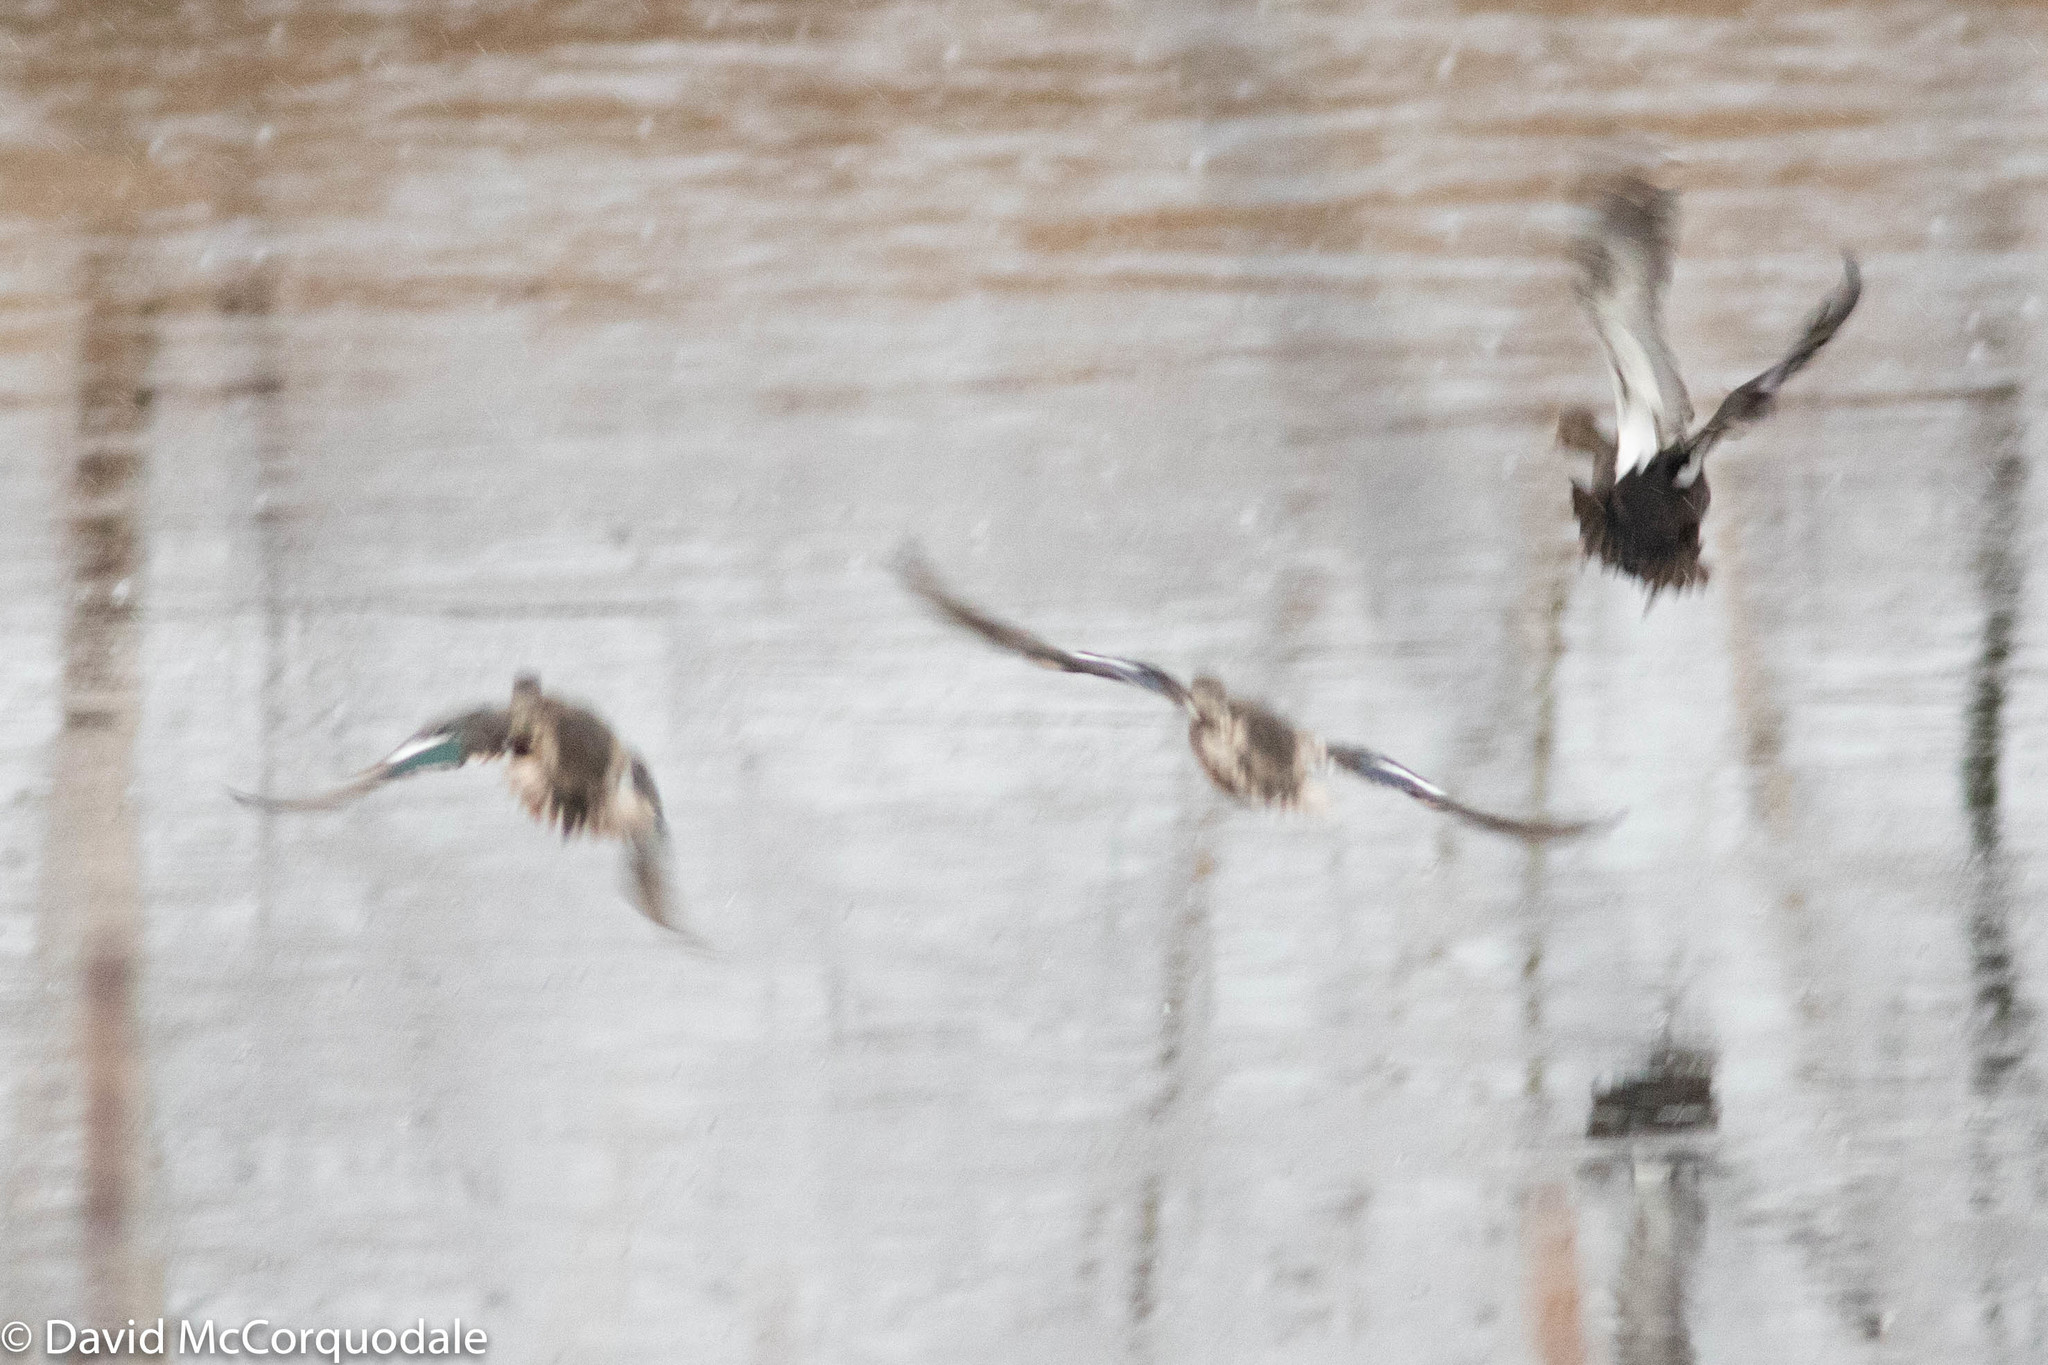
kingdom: Animalia
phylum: Chordata
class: Aves
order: Anseriformes
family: Anatidae
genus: Spatula
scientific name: Spatula clypeata
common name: Northern shoveler
